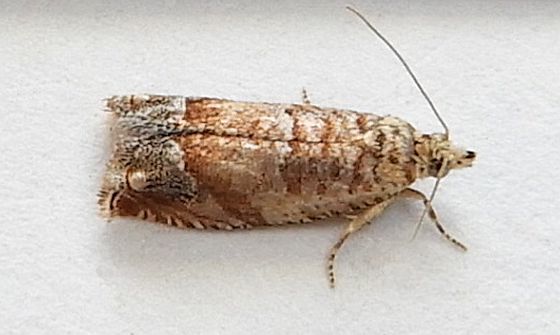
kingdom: Animalia
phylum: Arthropoda
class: Insecta
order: Lepidoptera
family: Tortricidae
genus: Epinotia
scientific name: Epinotia terracoctana
